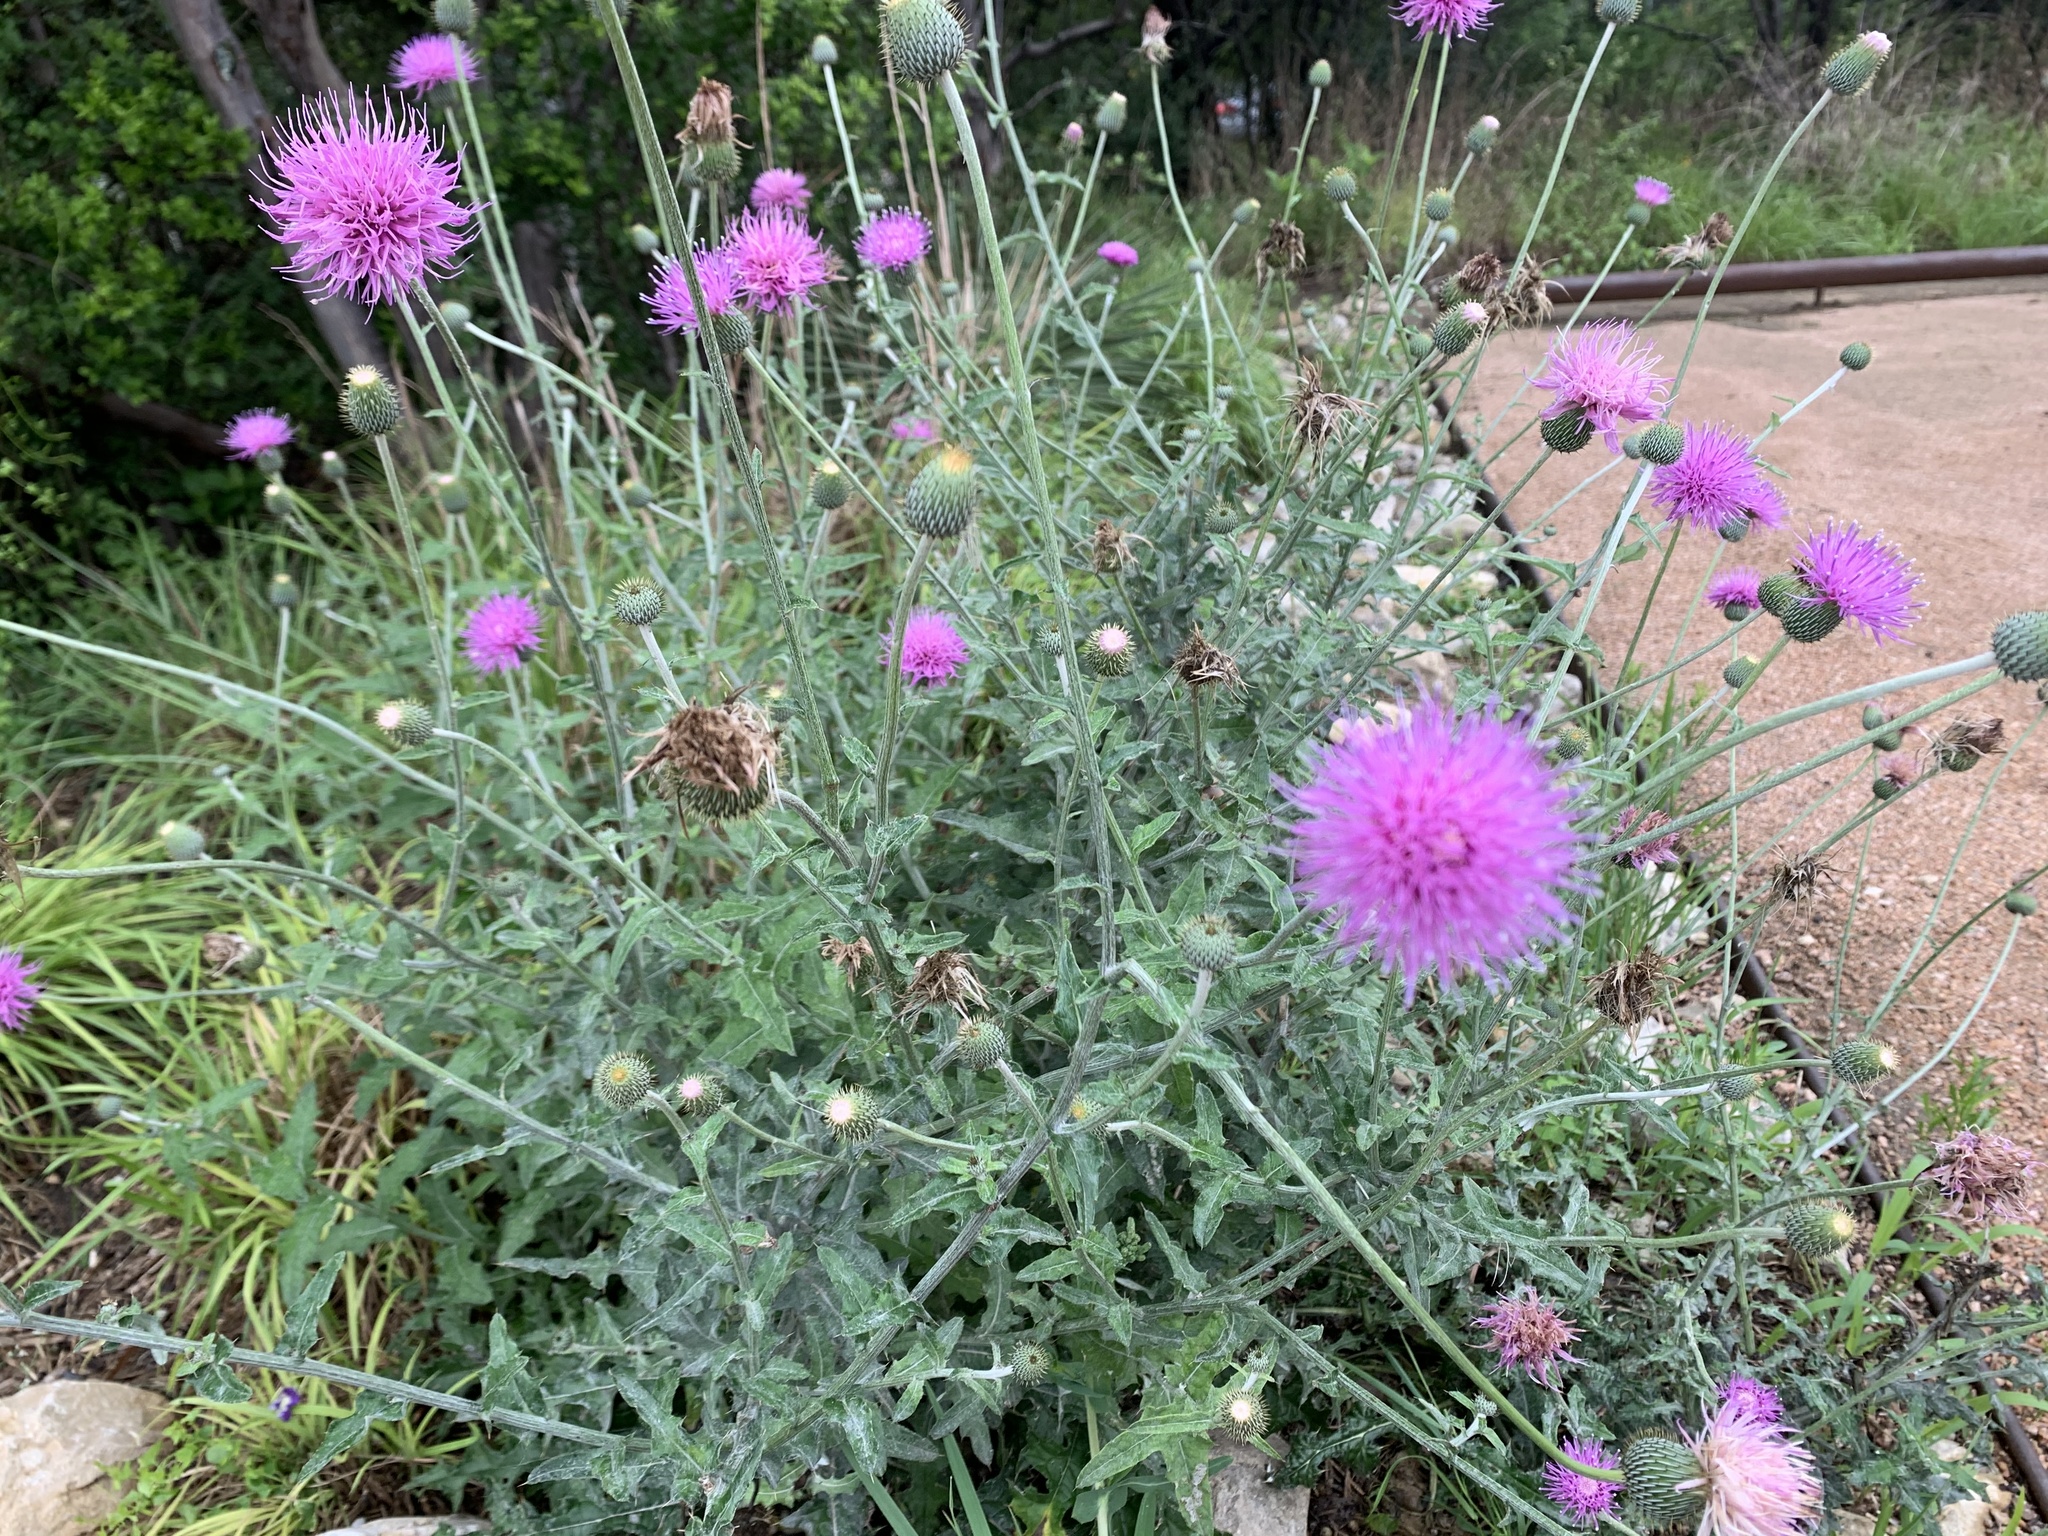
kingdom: Plantae
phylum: Tracheophyta
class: Magnoliopsida
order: Asterales
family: Asteraceae
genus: Cirsium
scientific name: Cirsium texanum
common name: Texas purple thistle
